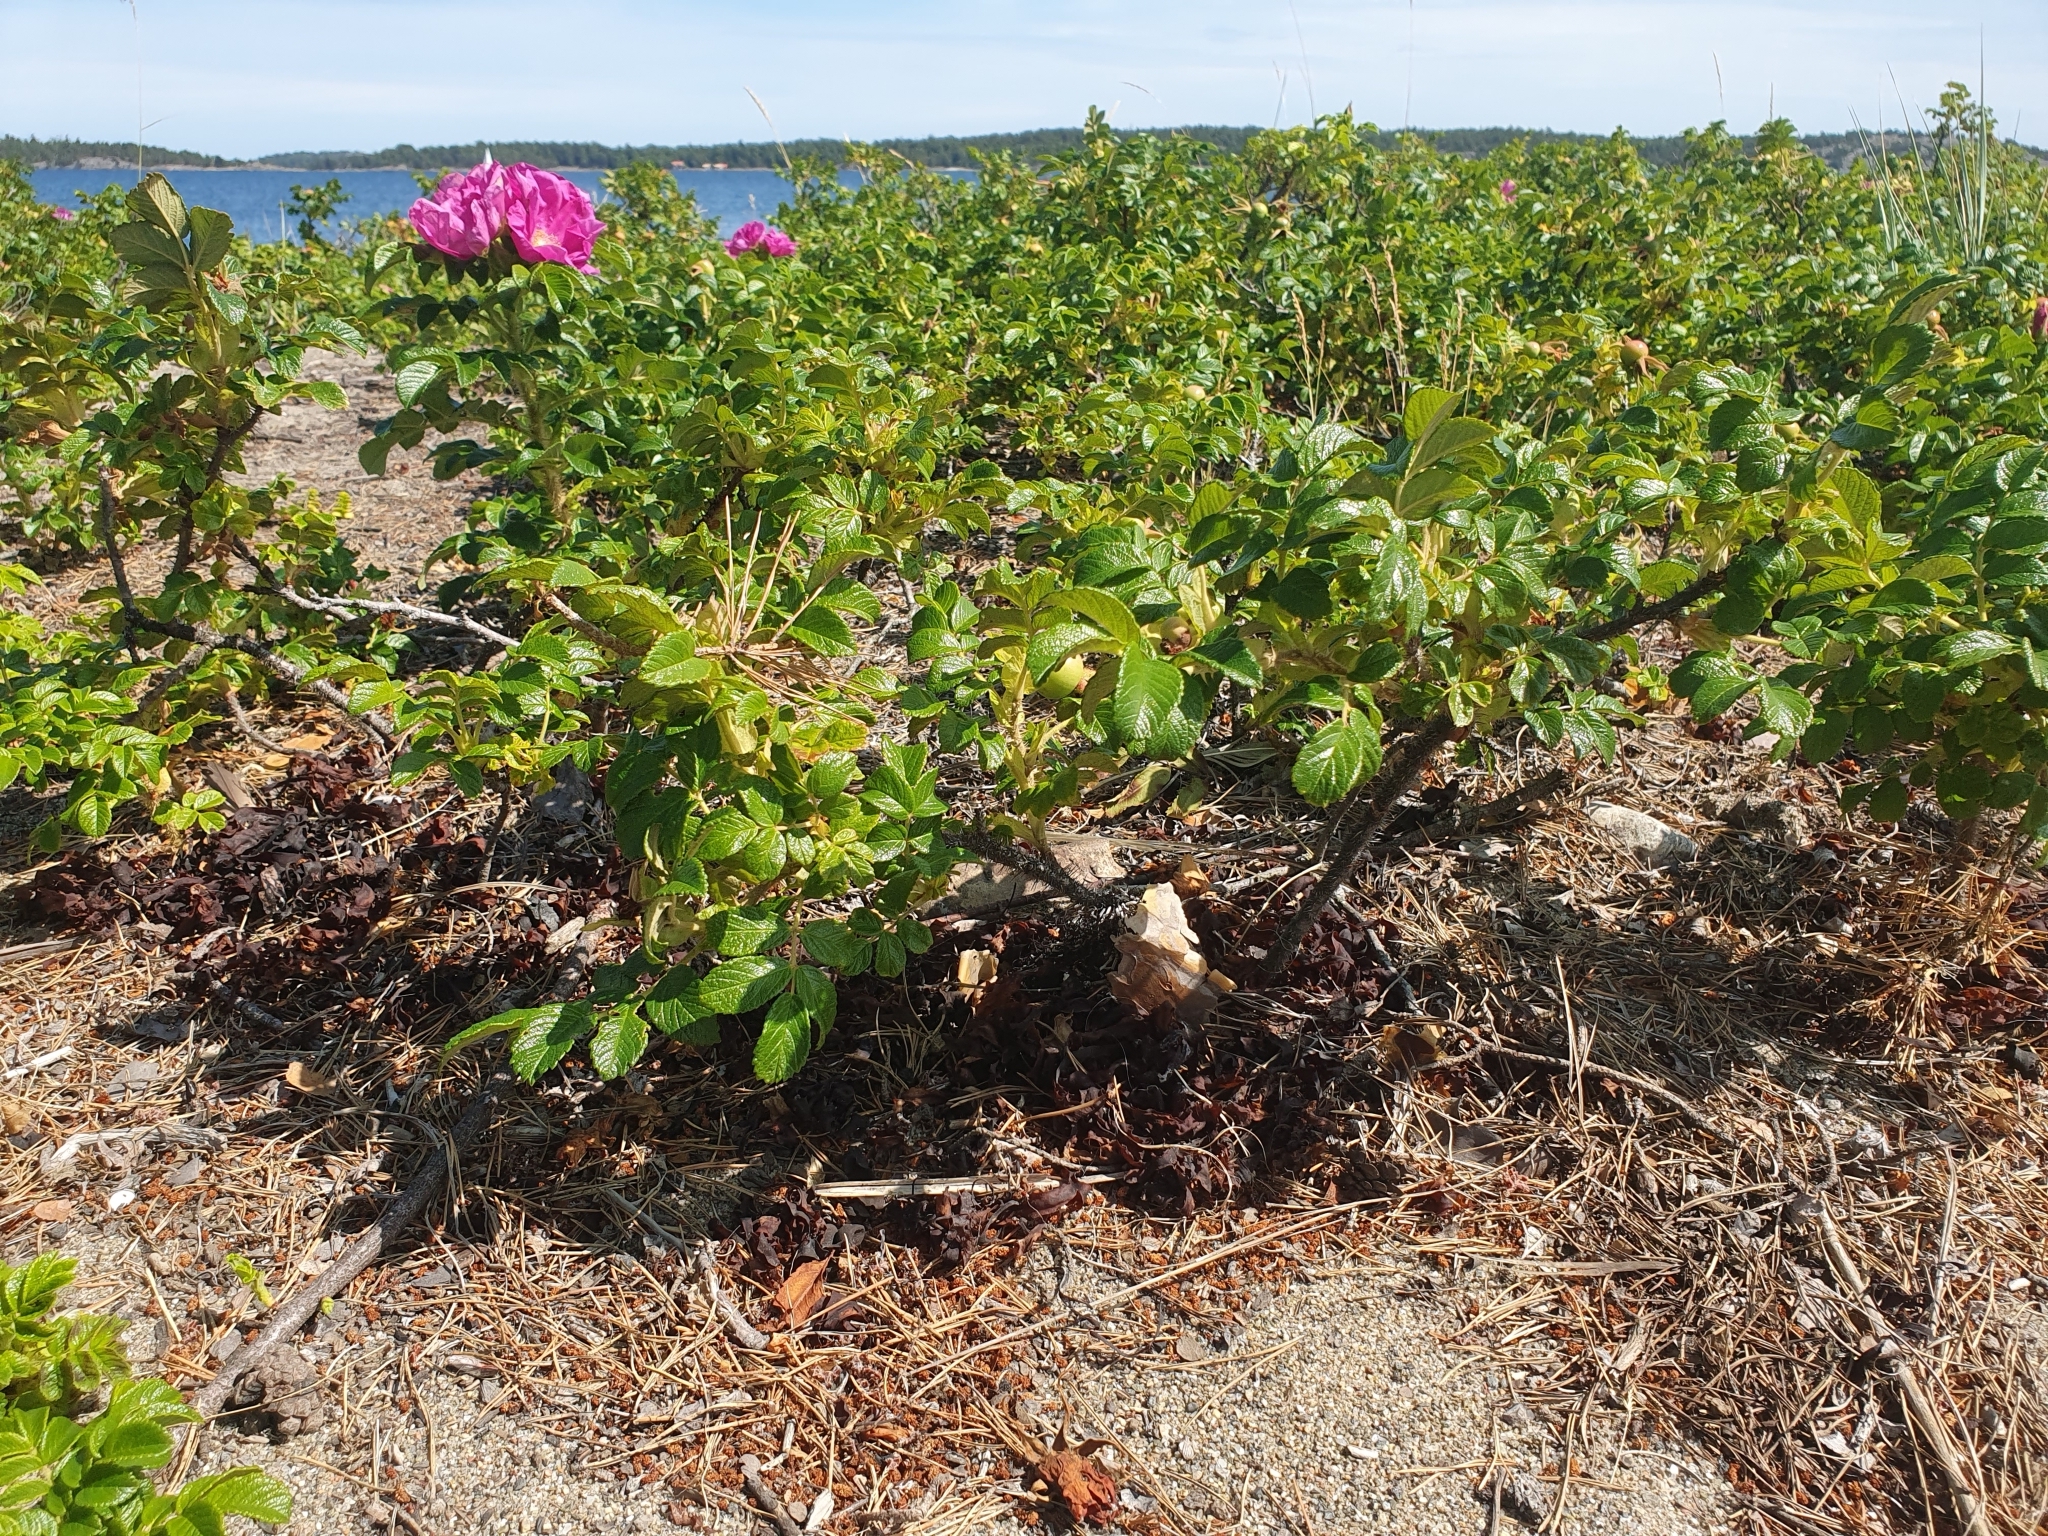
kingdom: Plantae
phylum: Tracheophyta
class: Magnoliopsida
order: Rosales
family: Rosaceae
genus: Rosa
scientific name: Rosa rugosa
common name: Japanese rose
